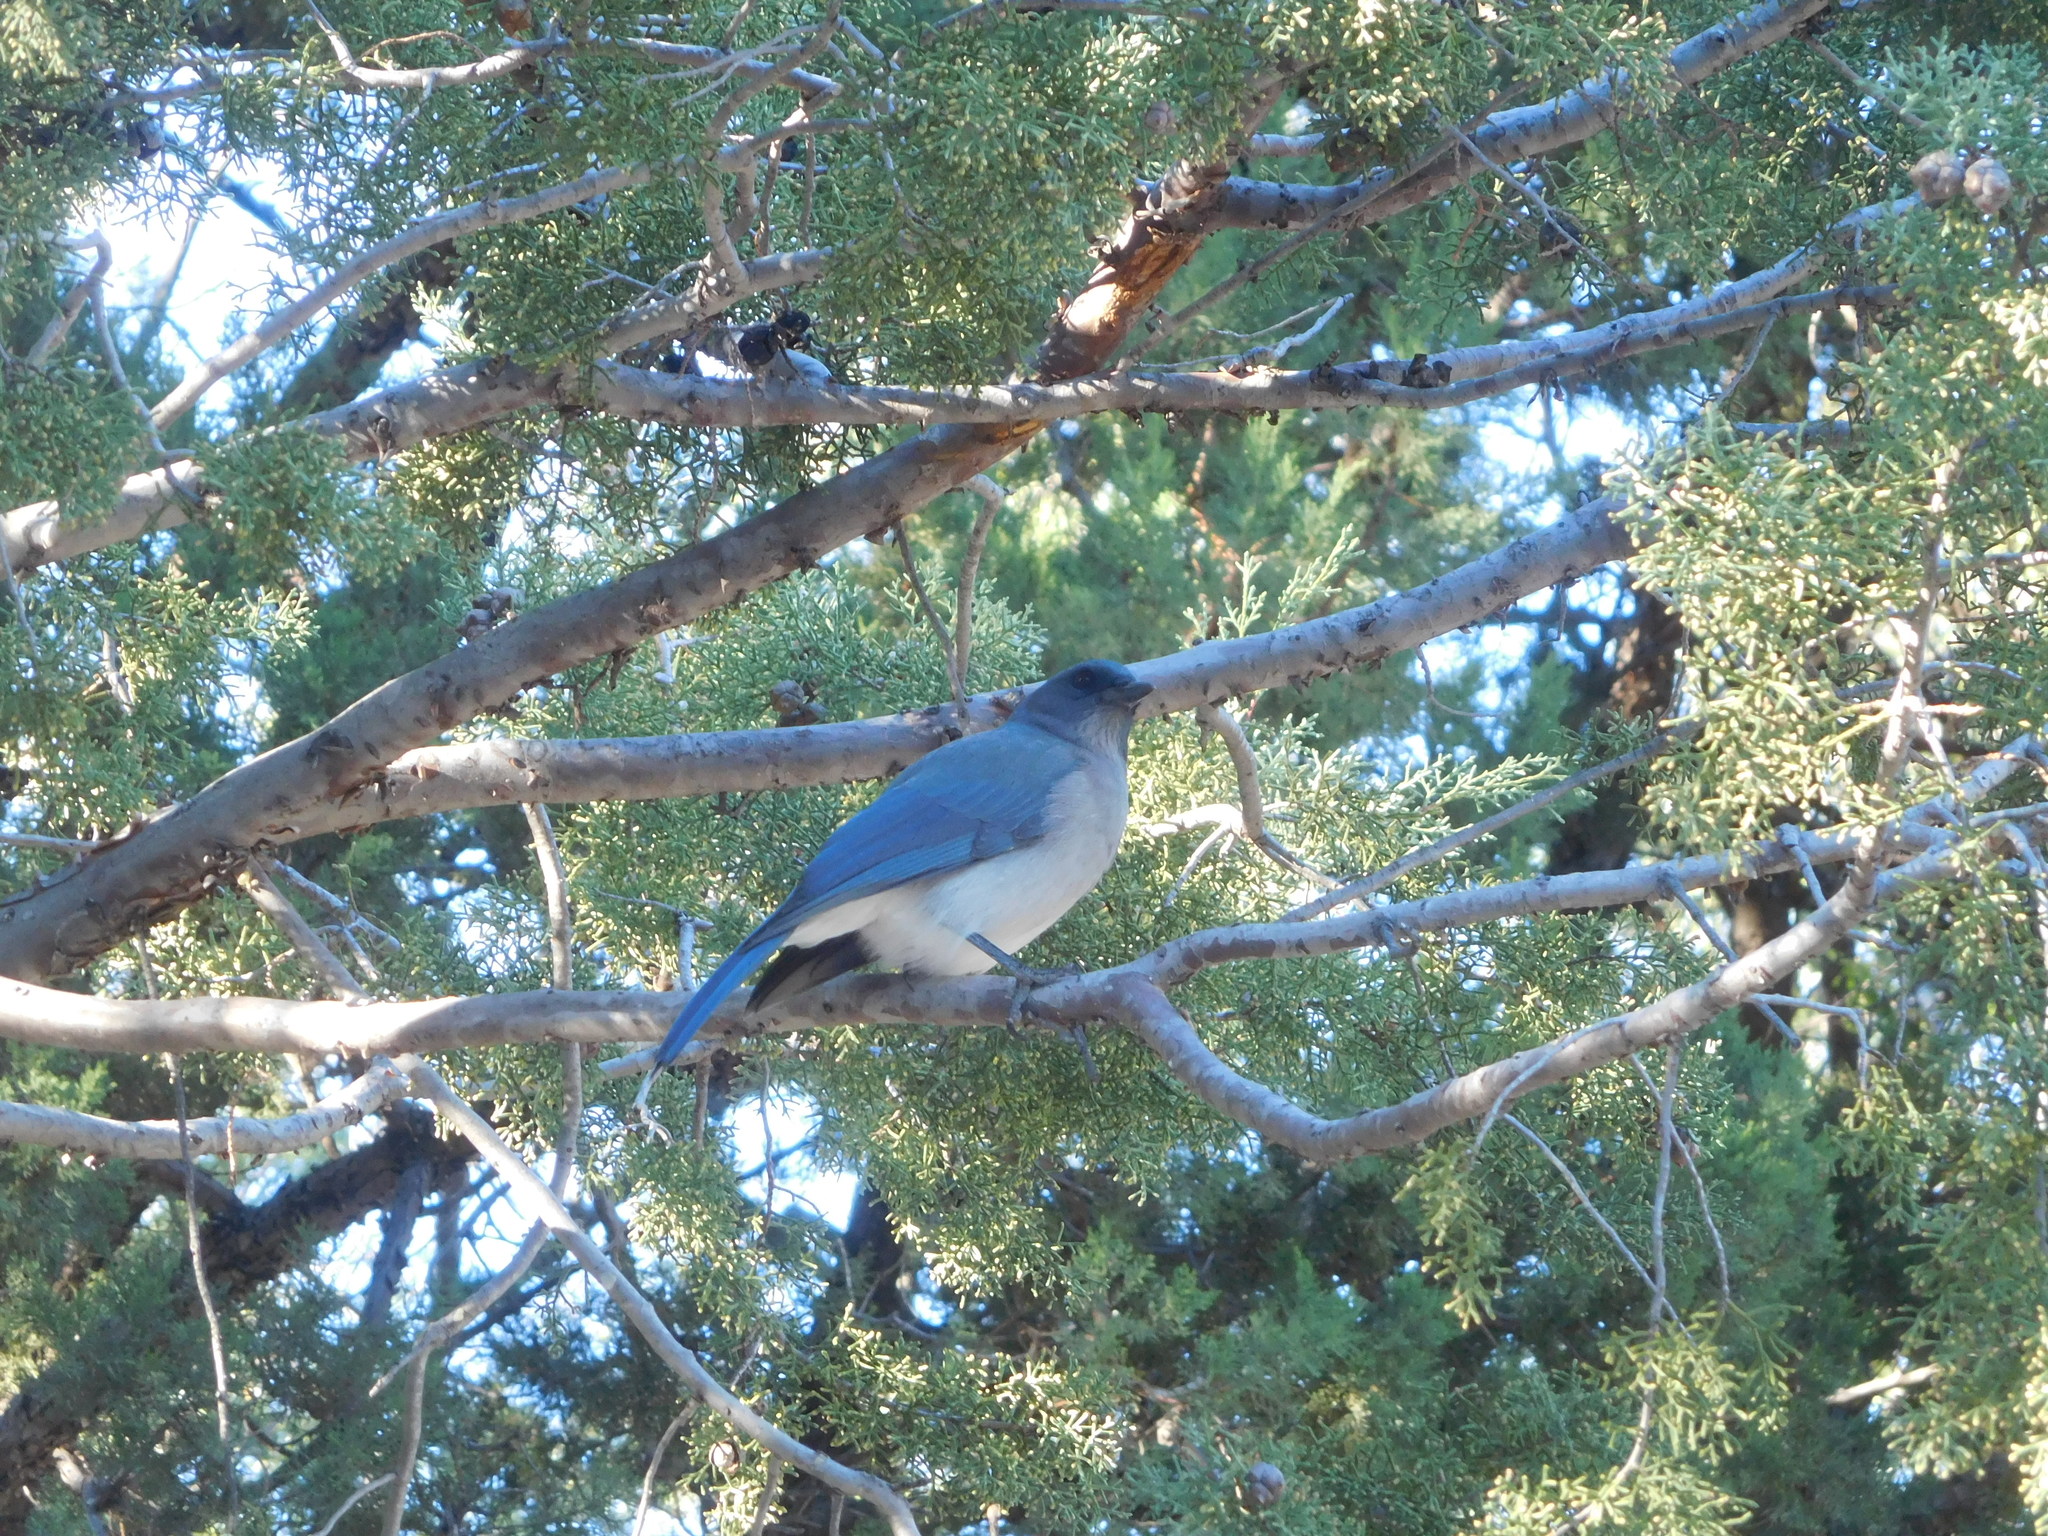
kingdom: Animalia
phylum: Chordata
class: Aves
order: Passeriformes
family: Corvidae
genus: Aphelocoma
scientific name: Aphelocoma wollweberi
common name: Mexican jay
